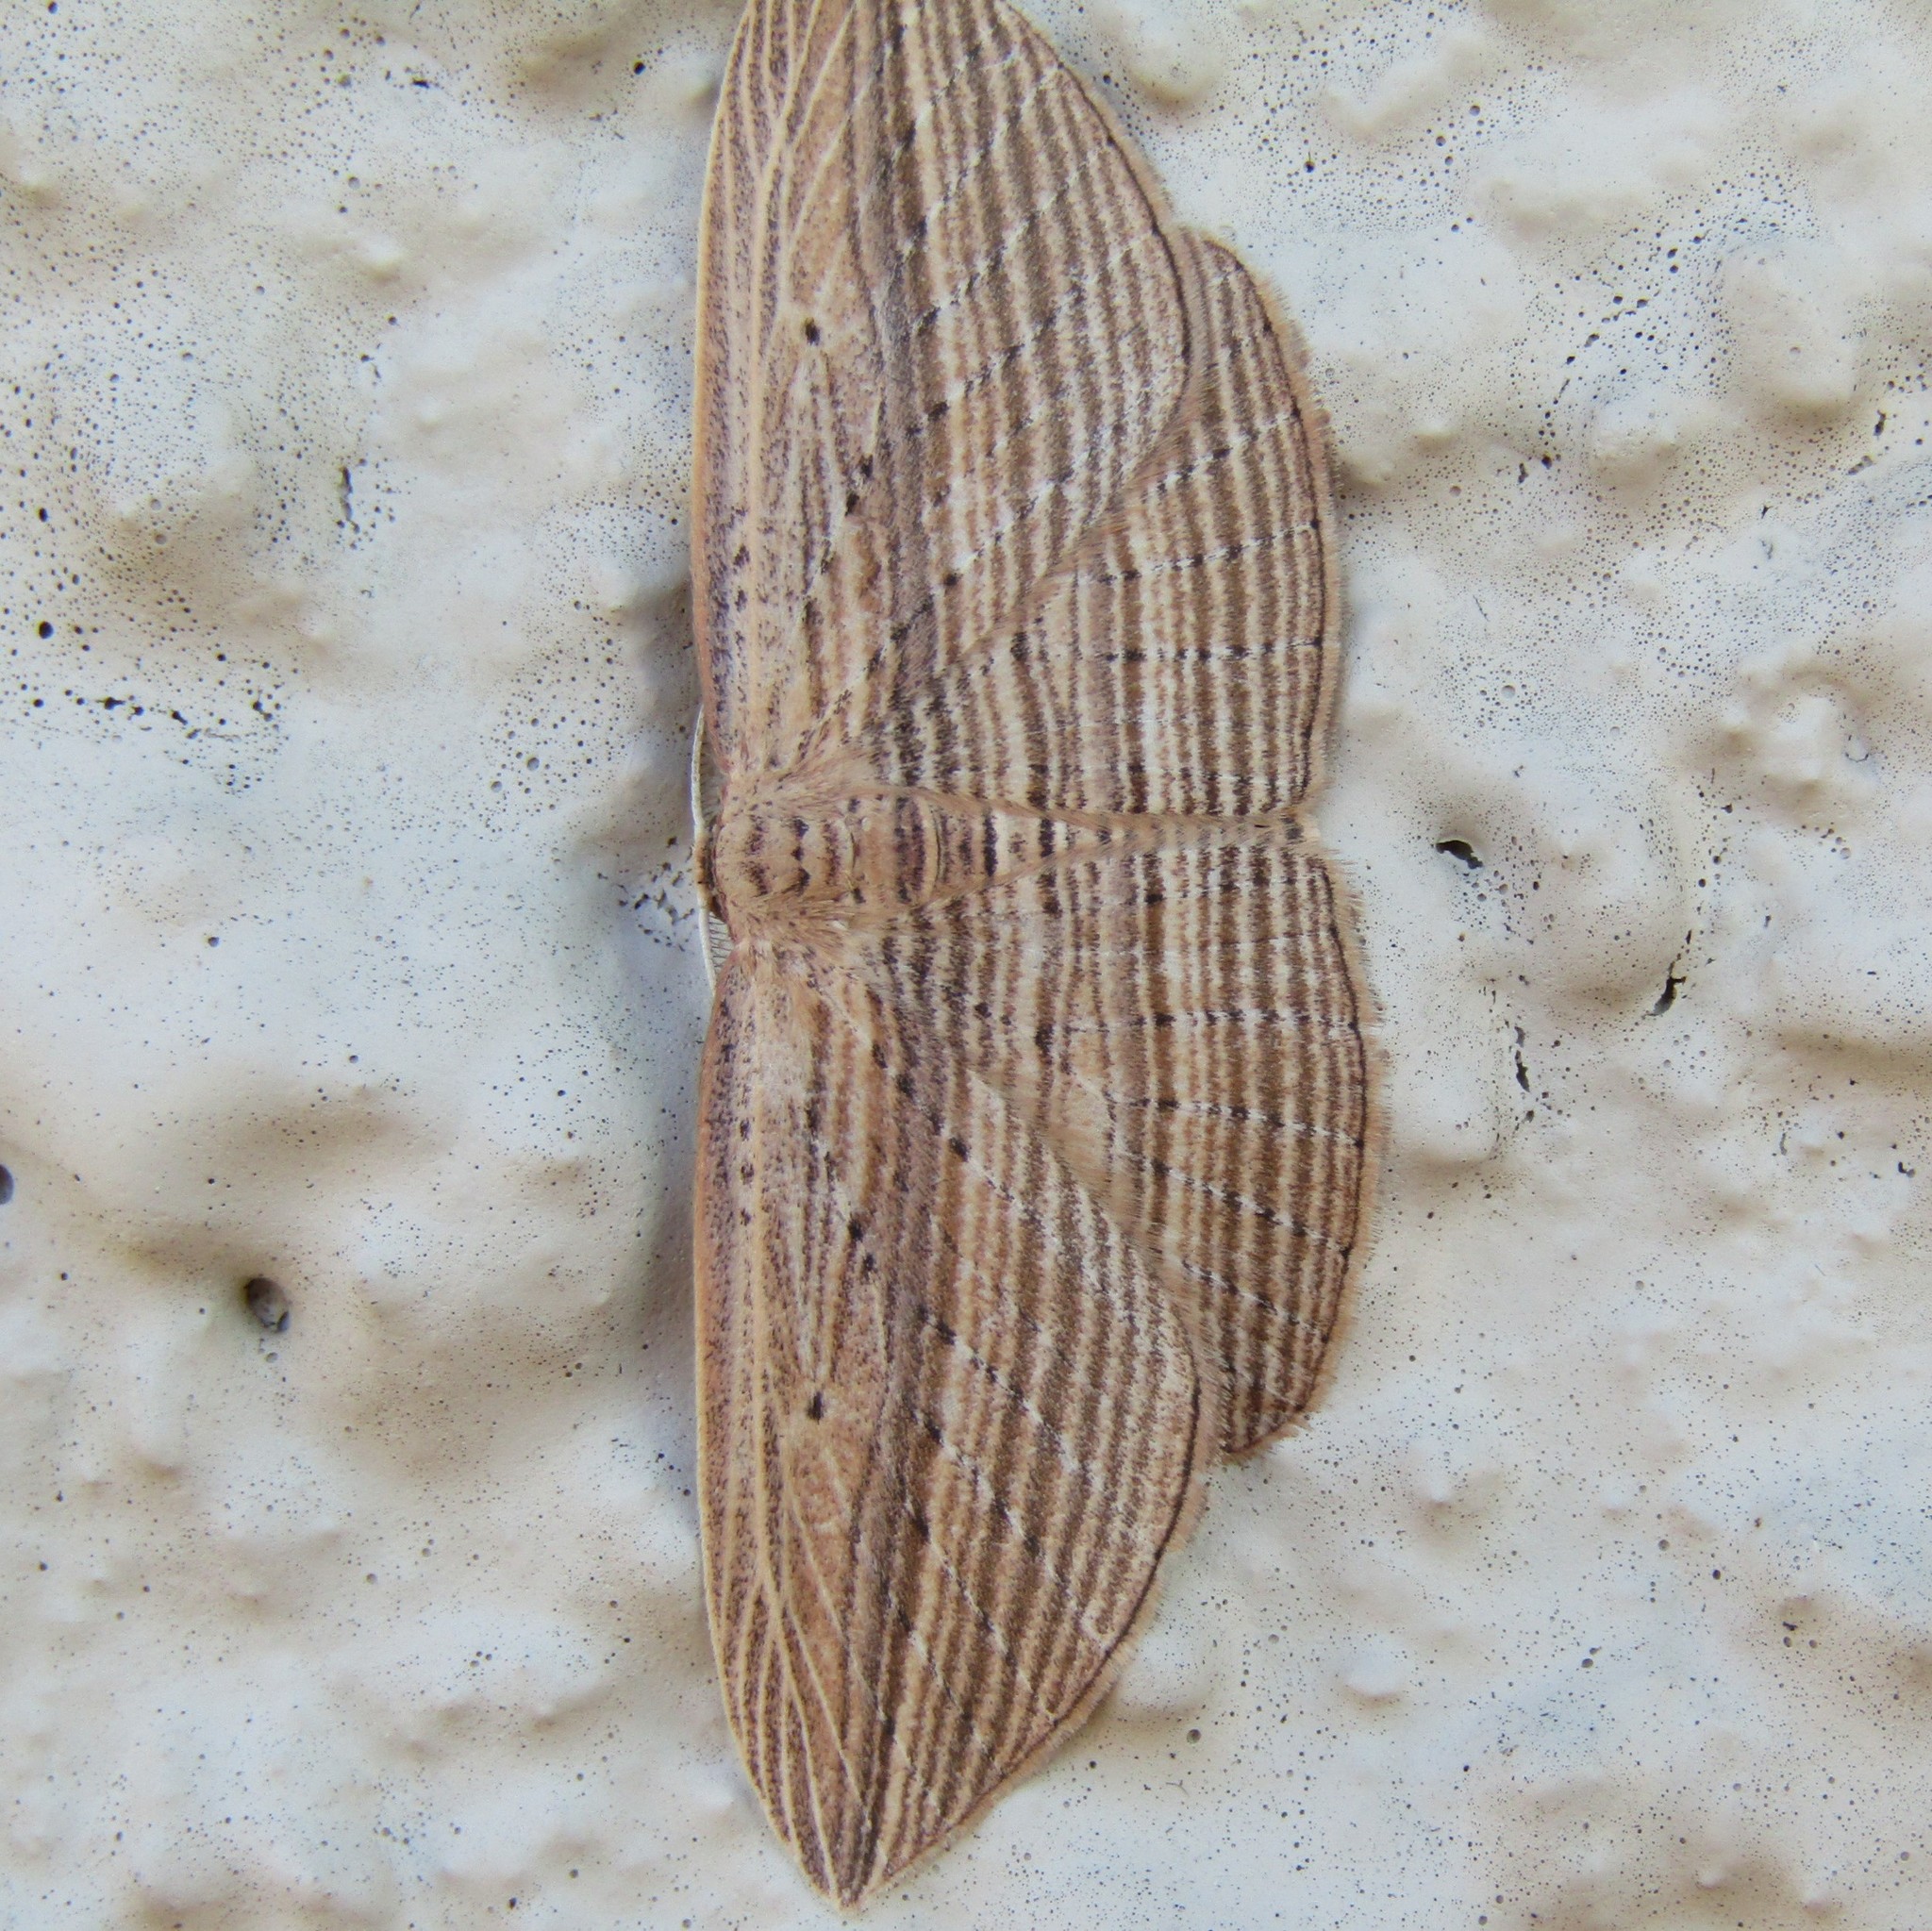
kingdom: Animalia
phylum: Arthropoda
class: Insecta
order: Lepidoptera
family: Geometridae
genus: Epiphryne
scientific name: Epiphryne verriculata
